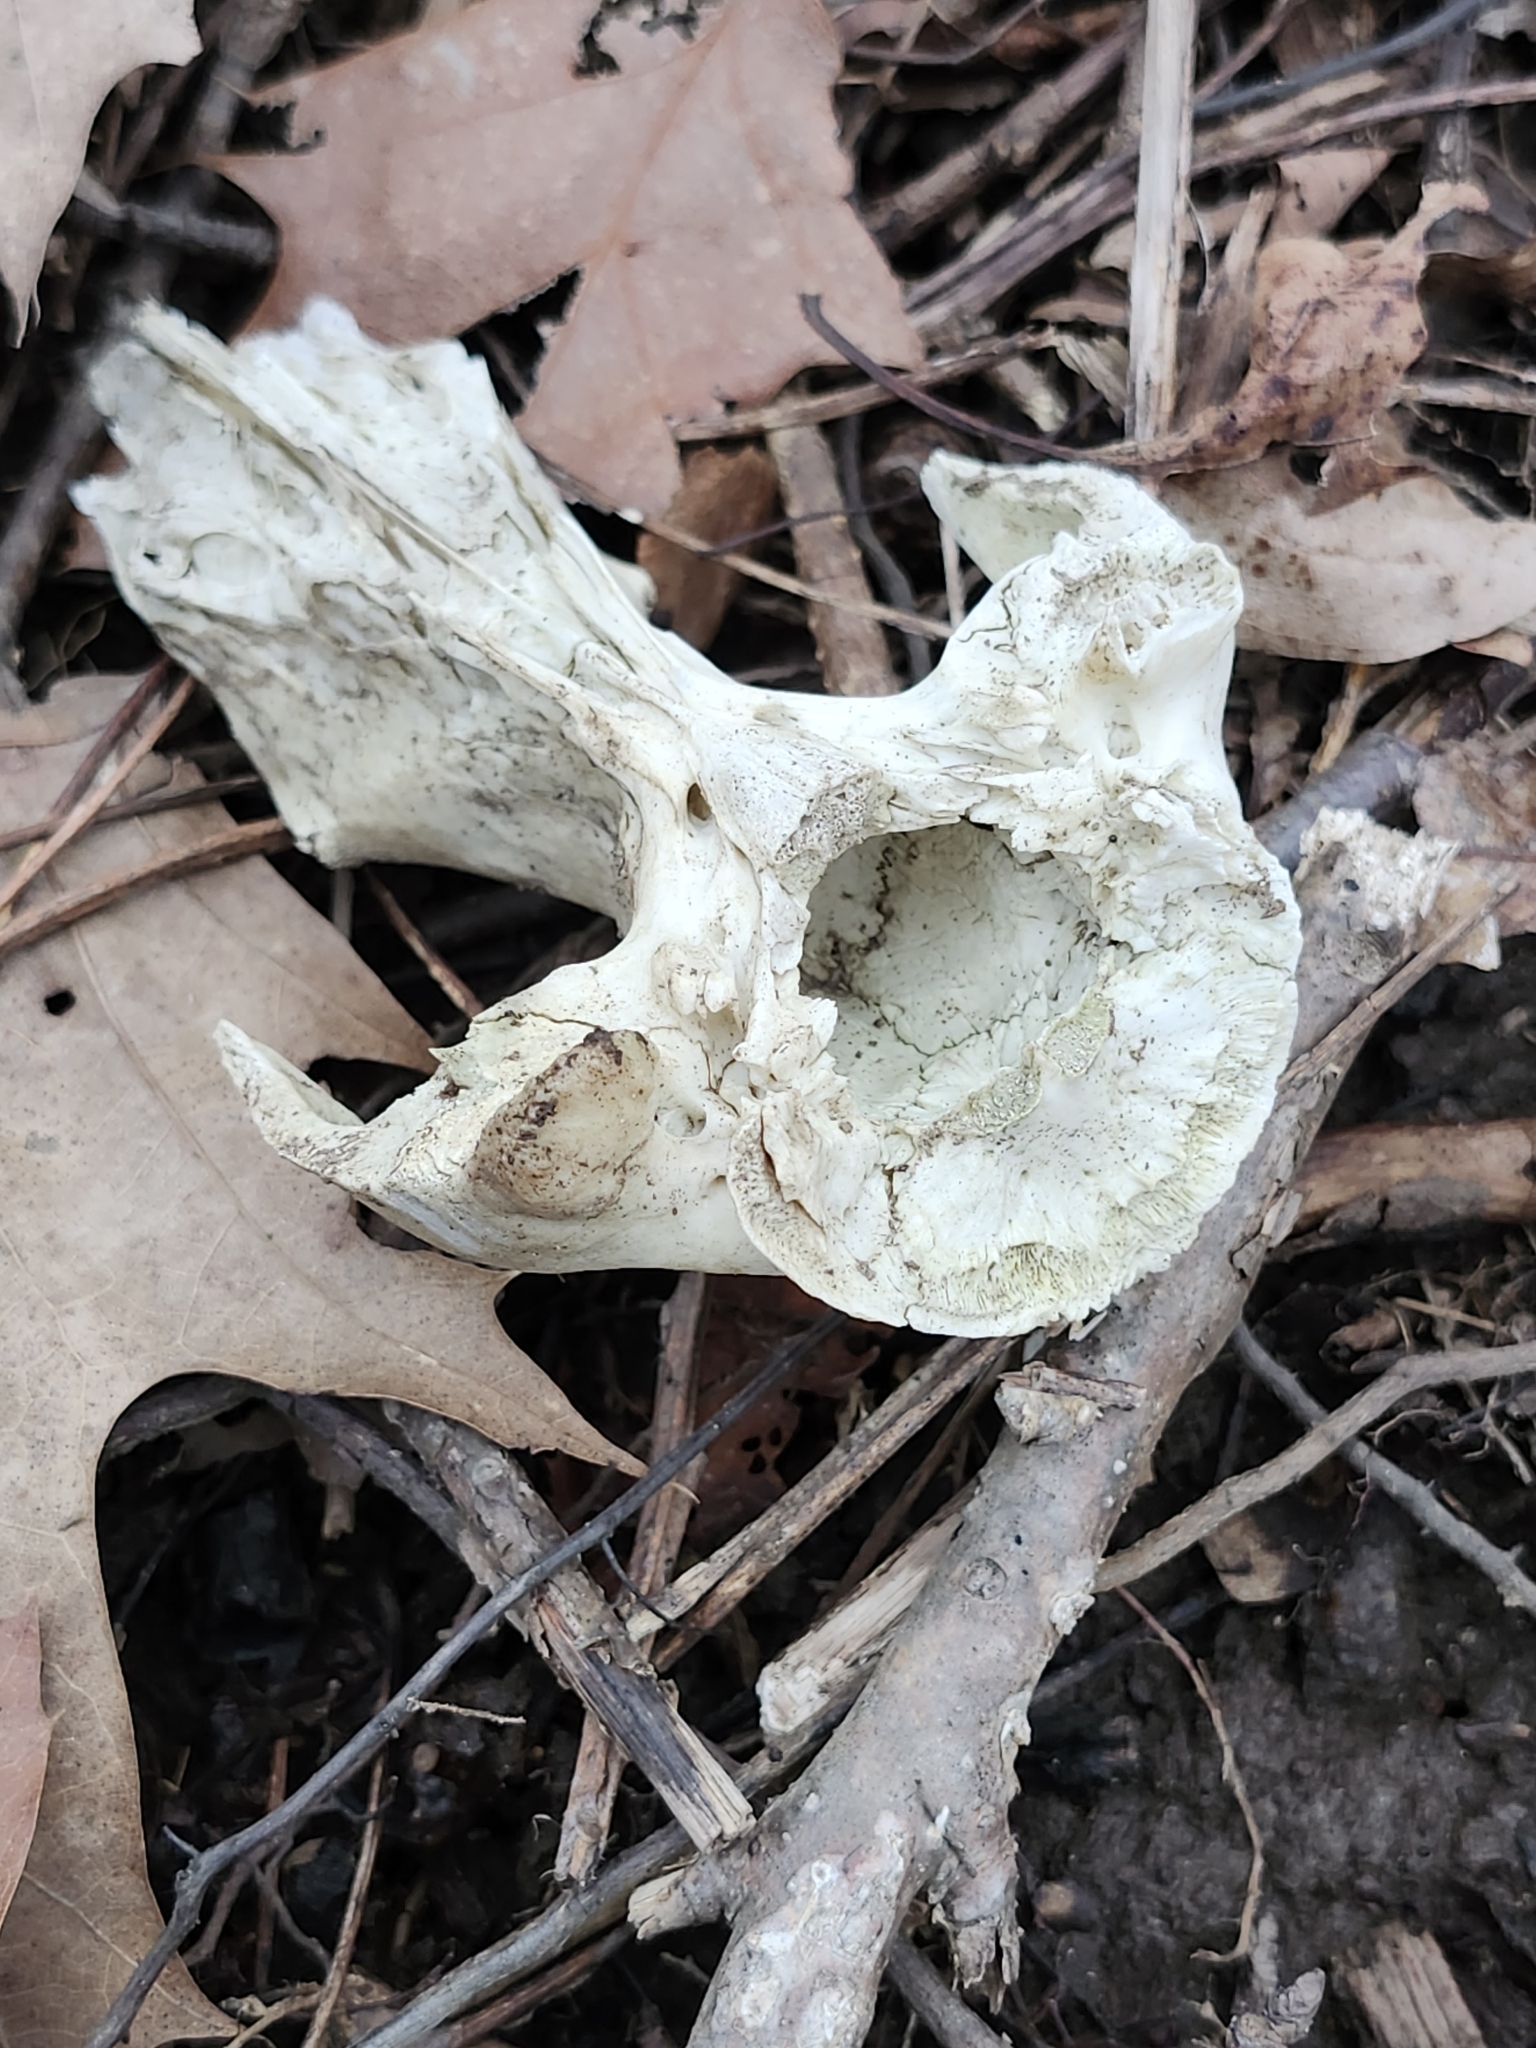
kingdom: Animalia
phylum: Chordata
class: Mammalia
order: Didelphimorphia
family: Didelphidae
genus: Didelphis
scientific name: Didelphis virginiana
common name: Virginia opossum
